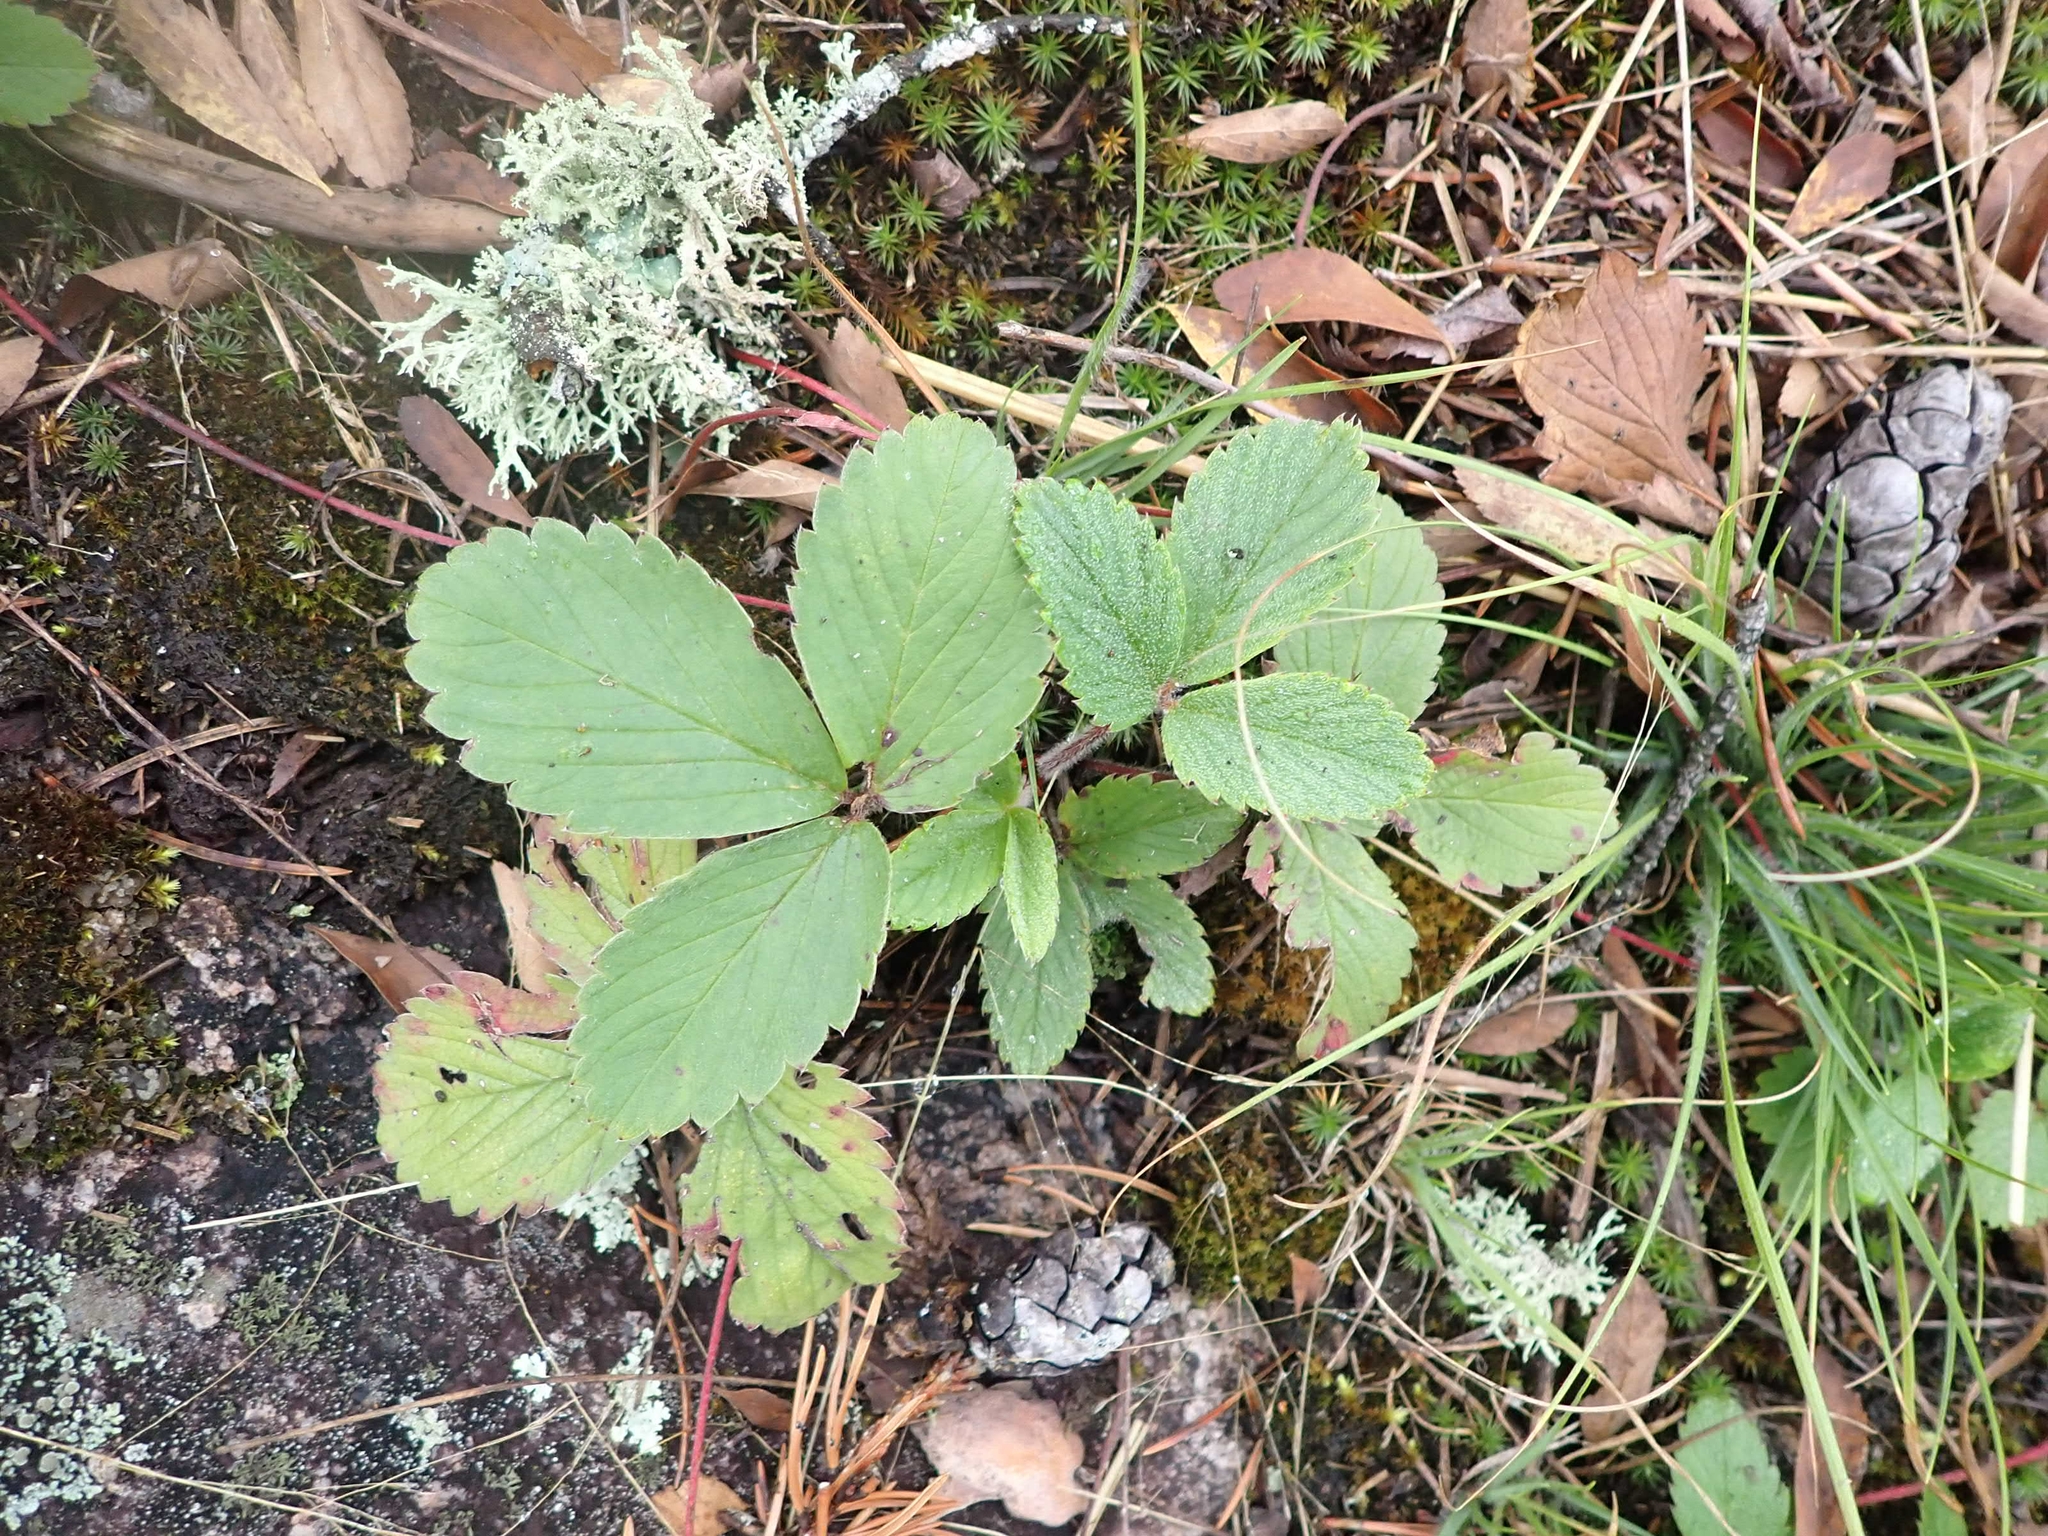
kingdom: Plantae
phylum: Tracheophyta
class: Magnoliopsida
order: Rosales
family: Rosaceae
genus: Fragaria
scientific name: Fragaria virginiana
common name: Thickleaved wild strawberry
